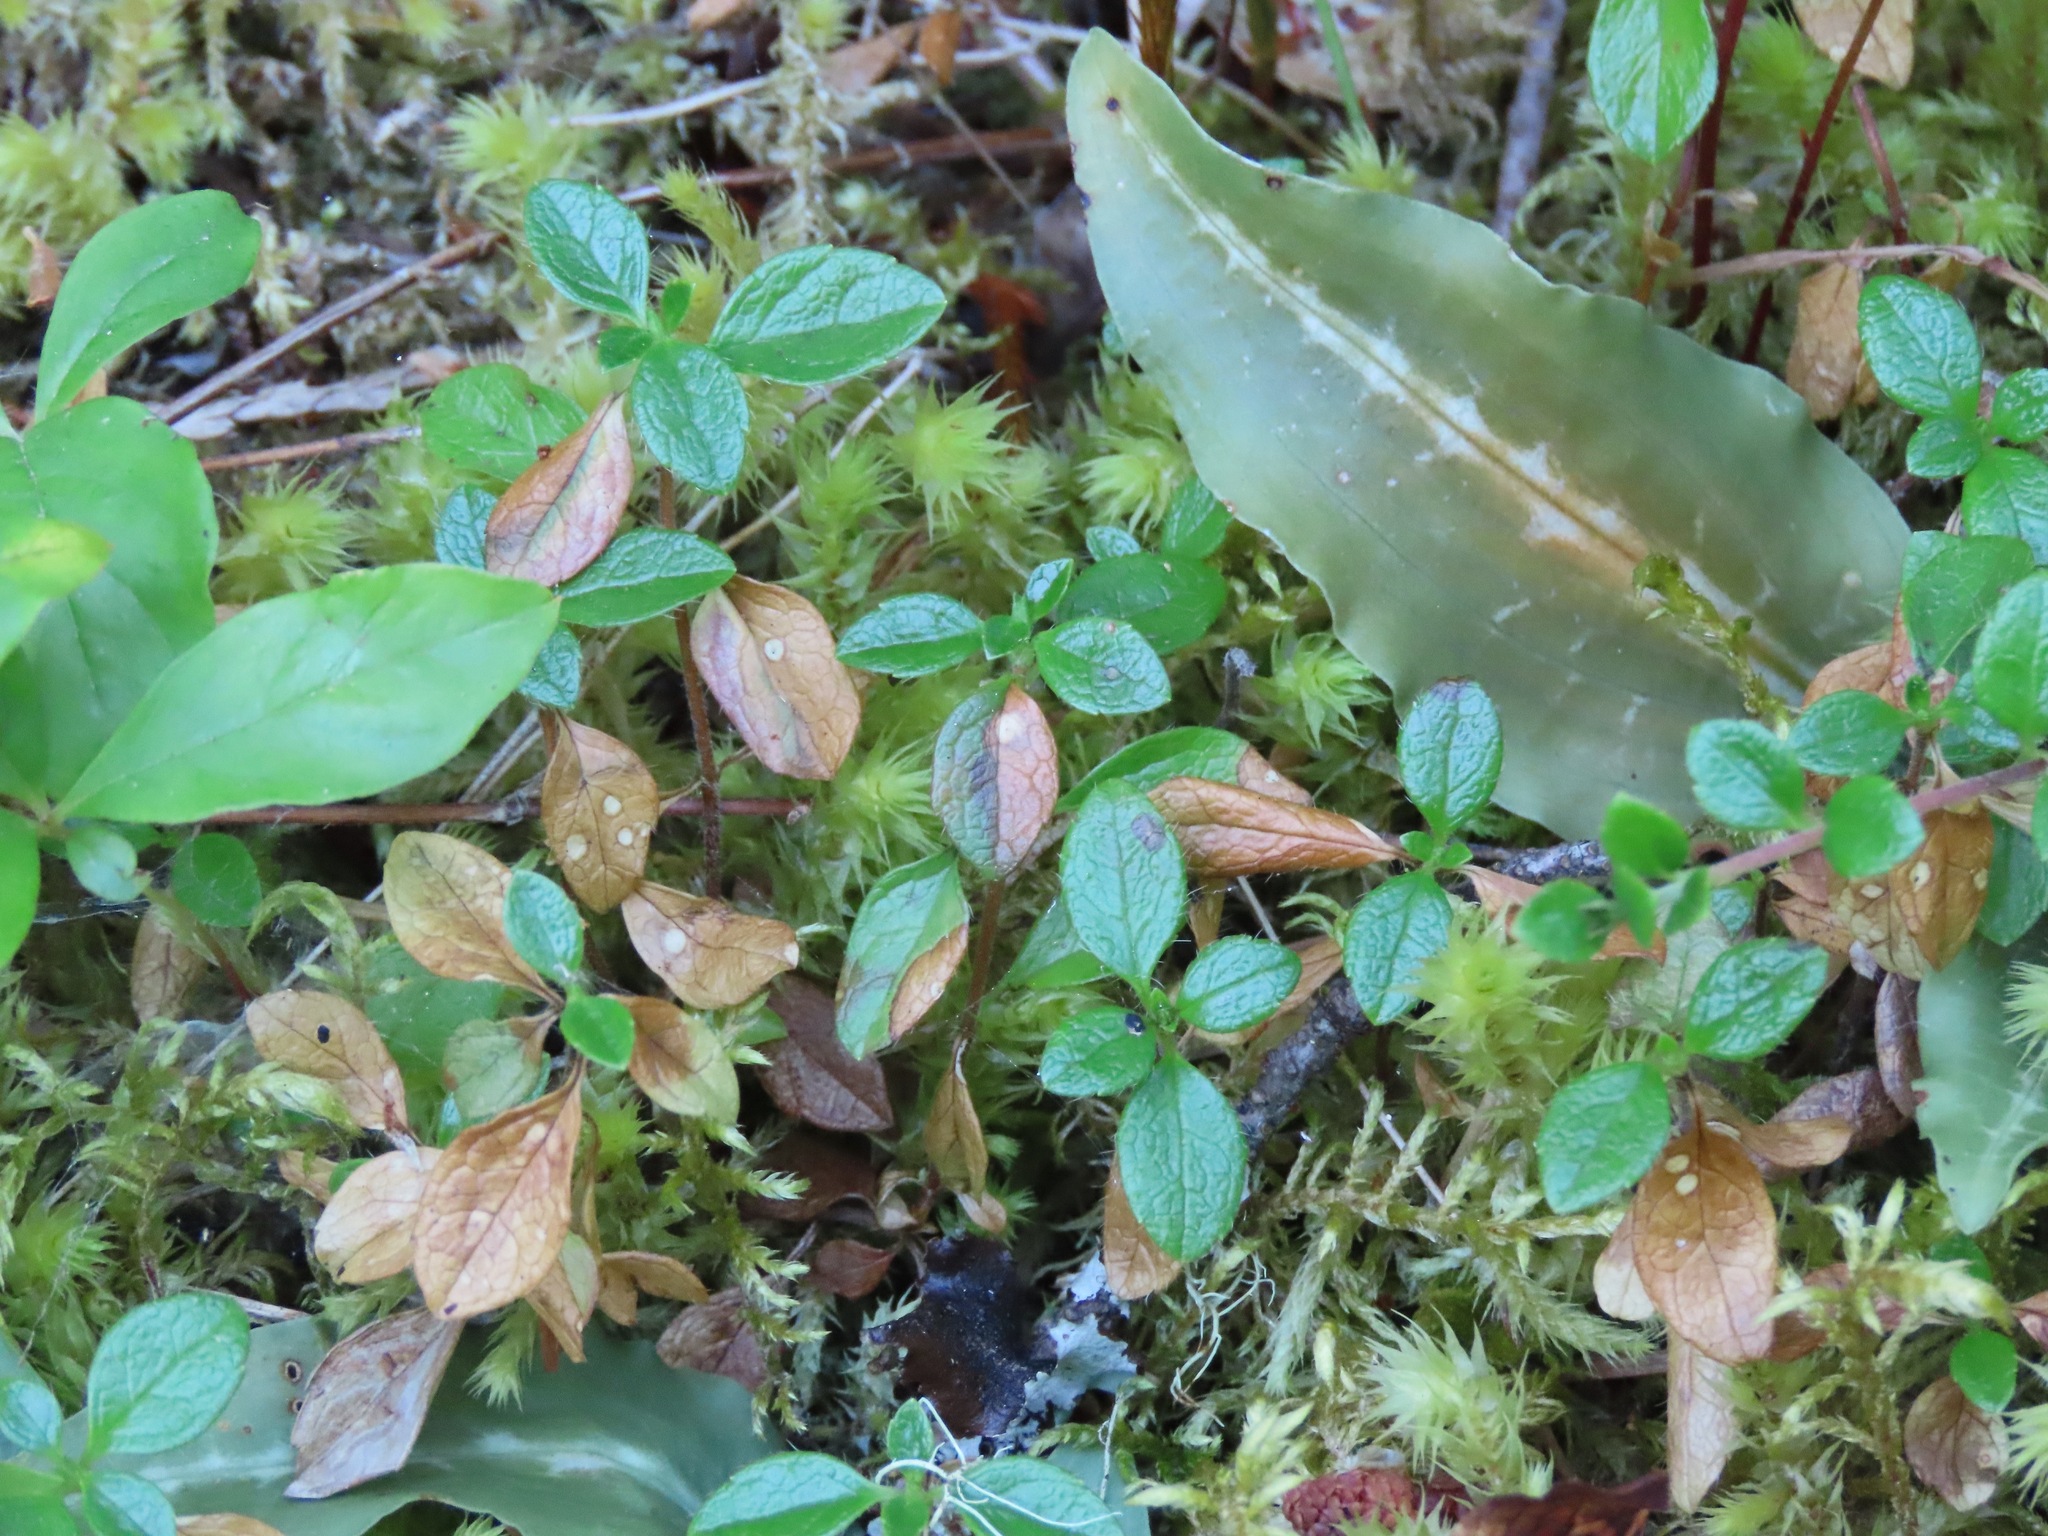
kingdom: Plantae
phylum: Tracheophyta
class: Magnoliopsida
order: Dipsacales
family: Caprifoliaceae
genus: Linnaea
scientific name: Linnaea borealis
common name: Twinflower
